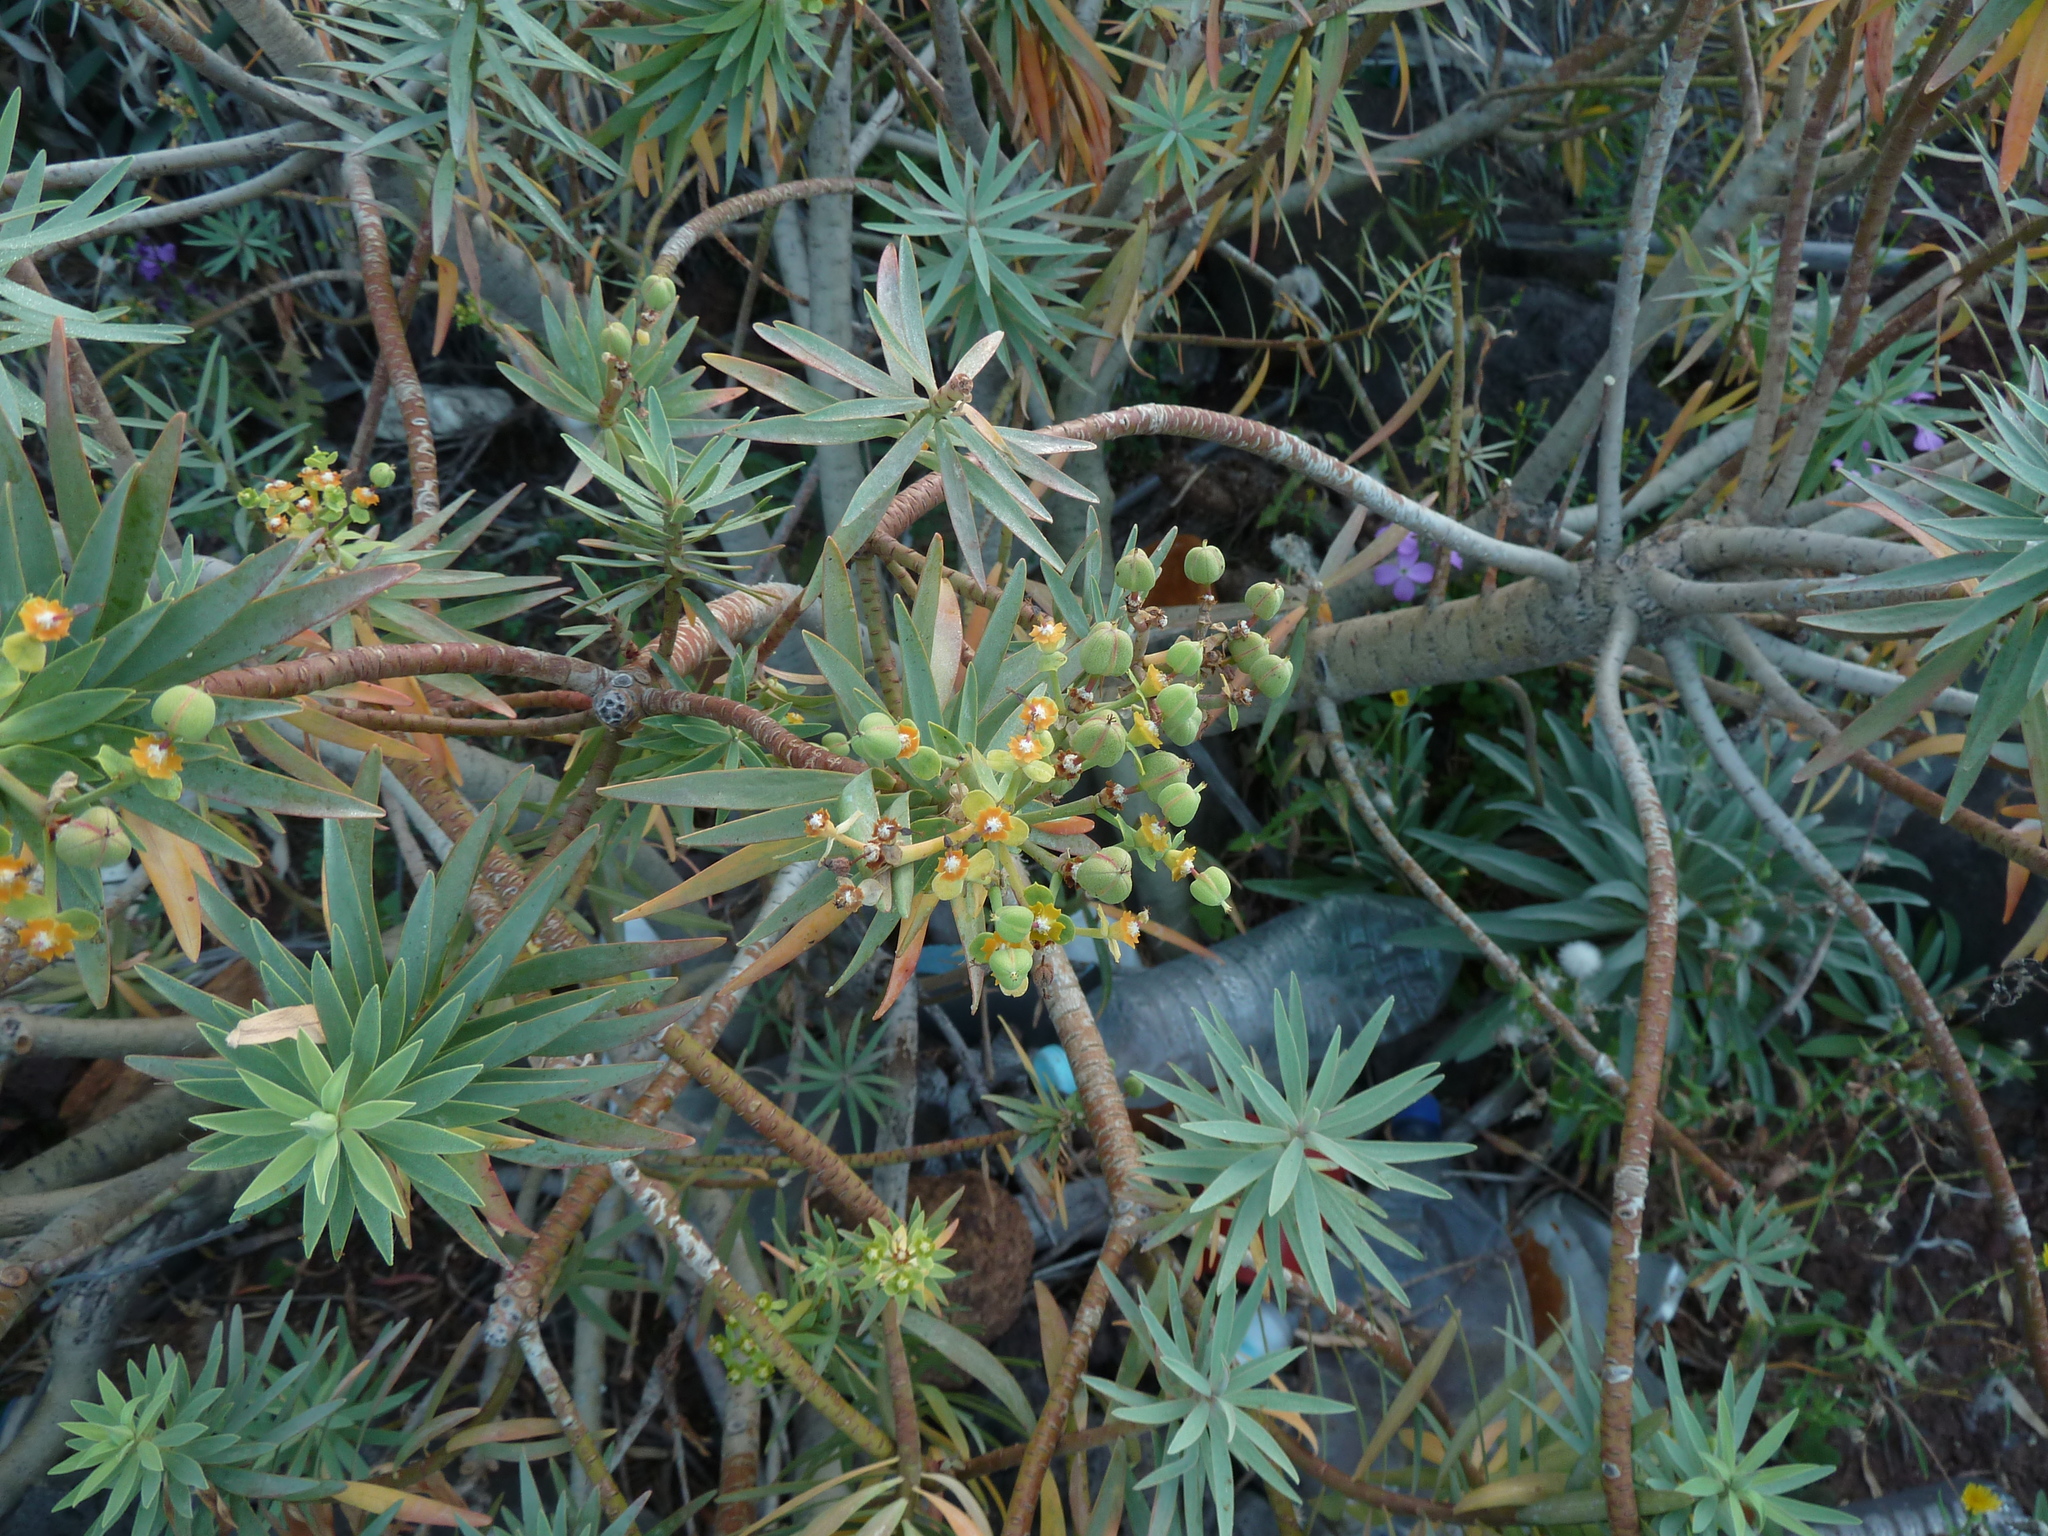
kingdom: Plantae
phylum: Tracheophyta
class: Magnoliopsida
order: Malpighiales
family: Euphorbiaceae
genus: Euphorbia
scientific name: Euphorbia piscatoria
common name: Fish-stunning spurge
